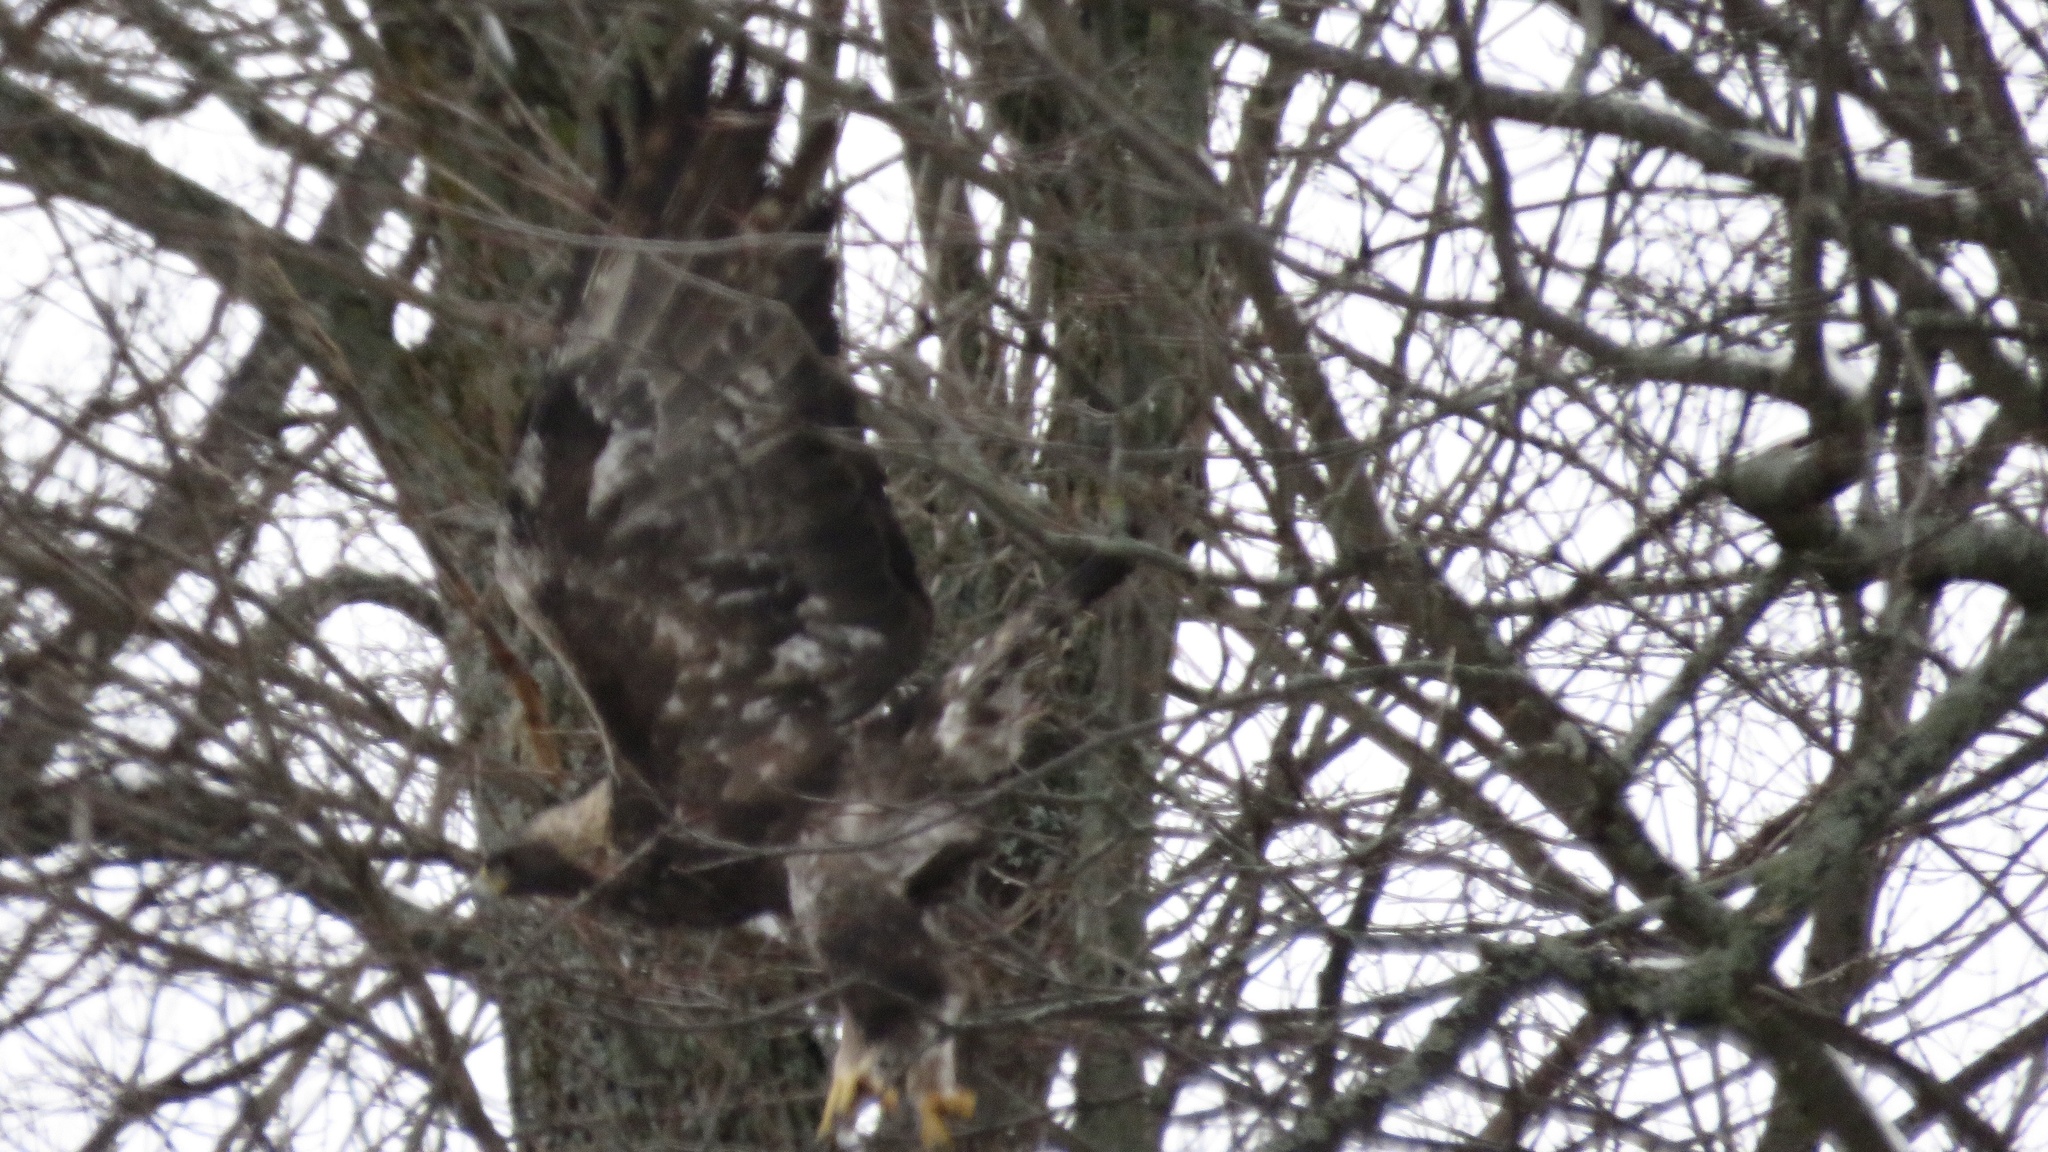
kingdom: Animalia
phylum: Chordata
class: Aves
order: Accipitriformes
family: Accipitridae
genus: Aquila
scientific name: Aquila chrysaetos
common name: Golden eagle
